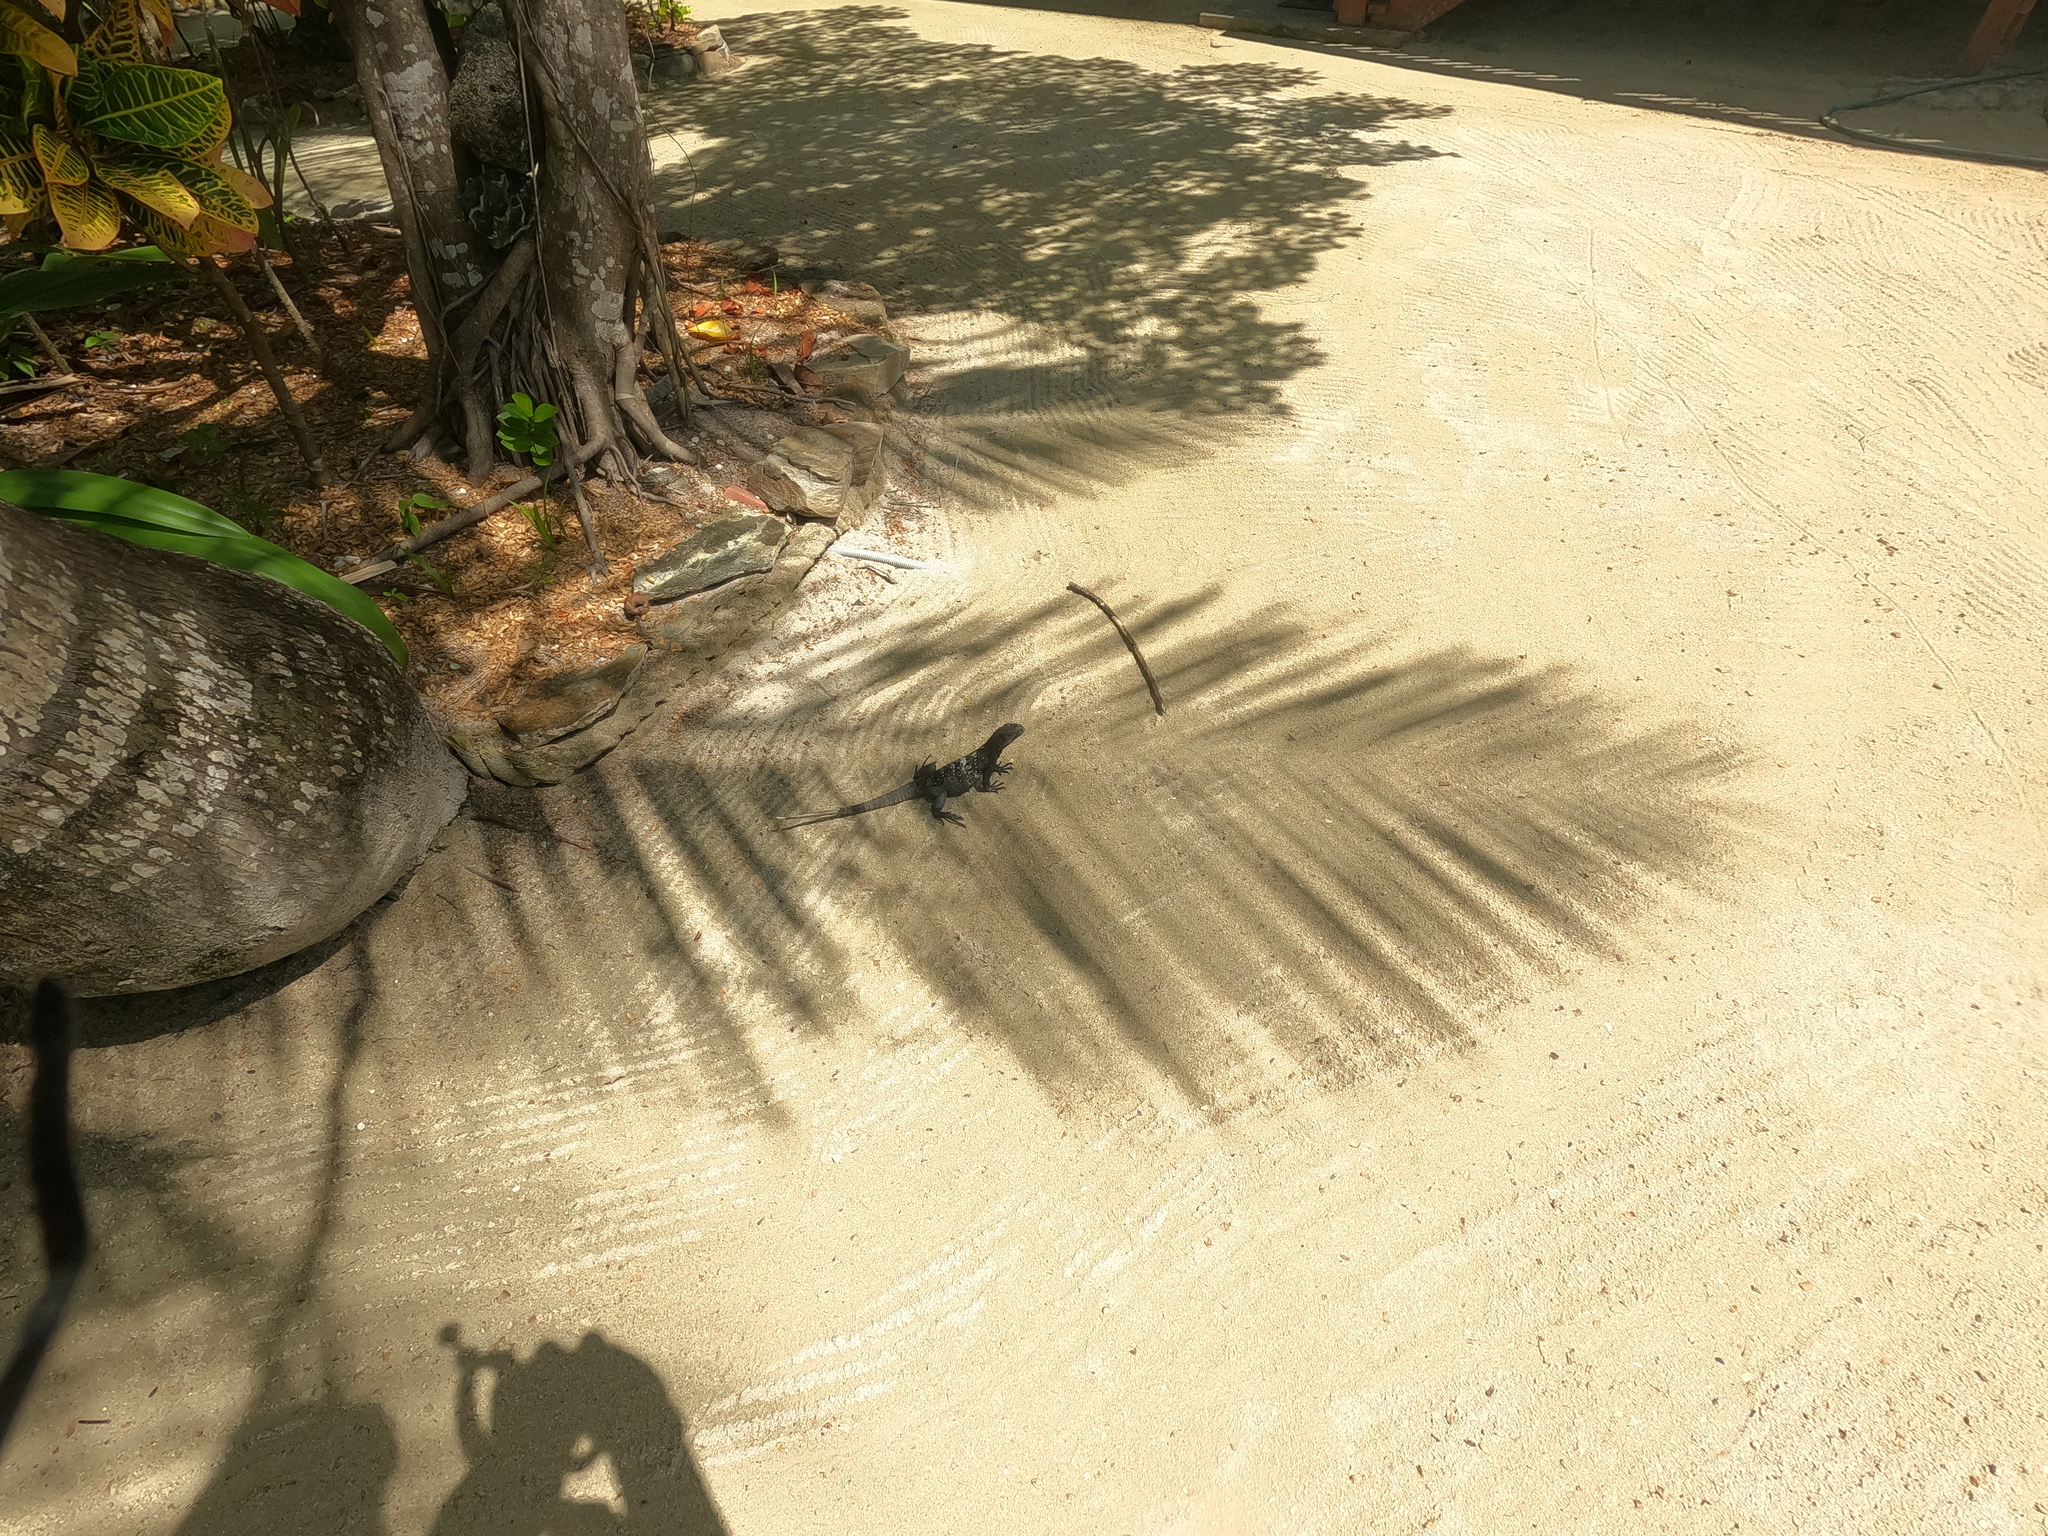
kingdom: Animalia
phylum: Chordata
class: Squamata
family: Iguanidae
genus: Ctenosaura
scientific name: Ctenosaura oedirhina
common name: Roatan spiny-tailed iguana
